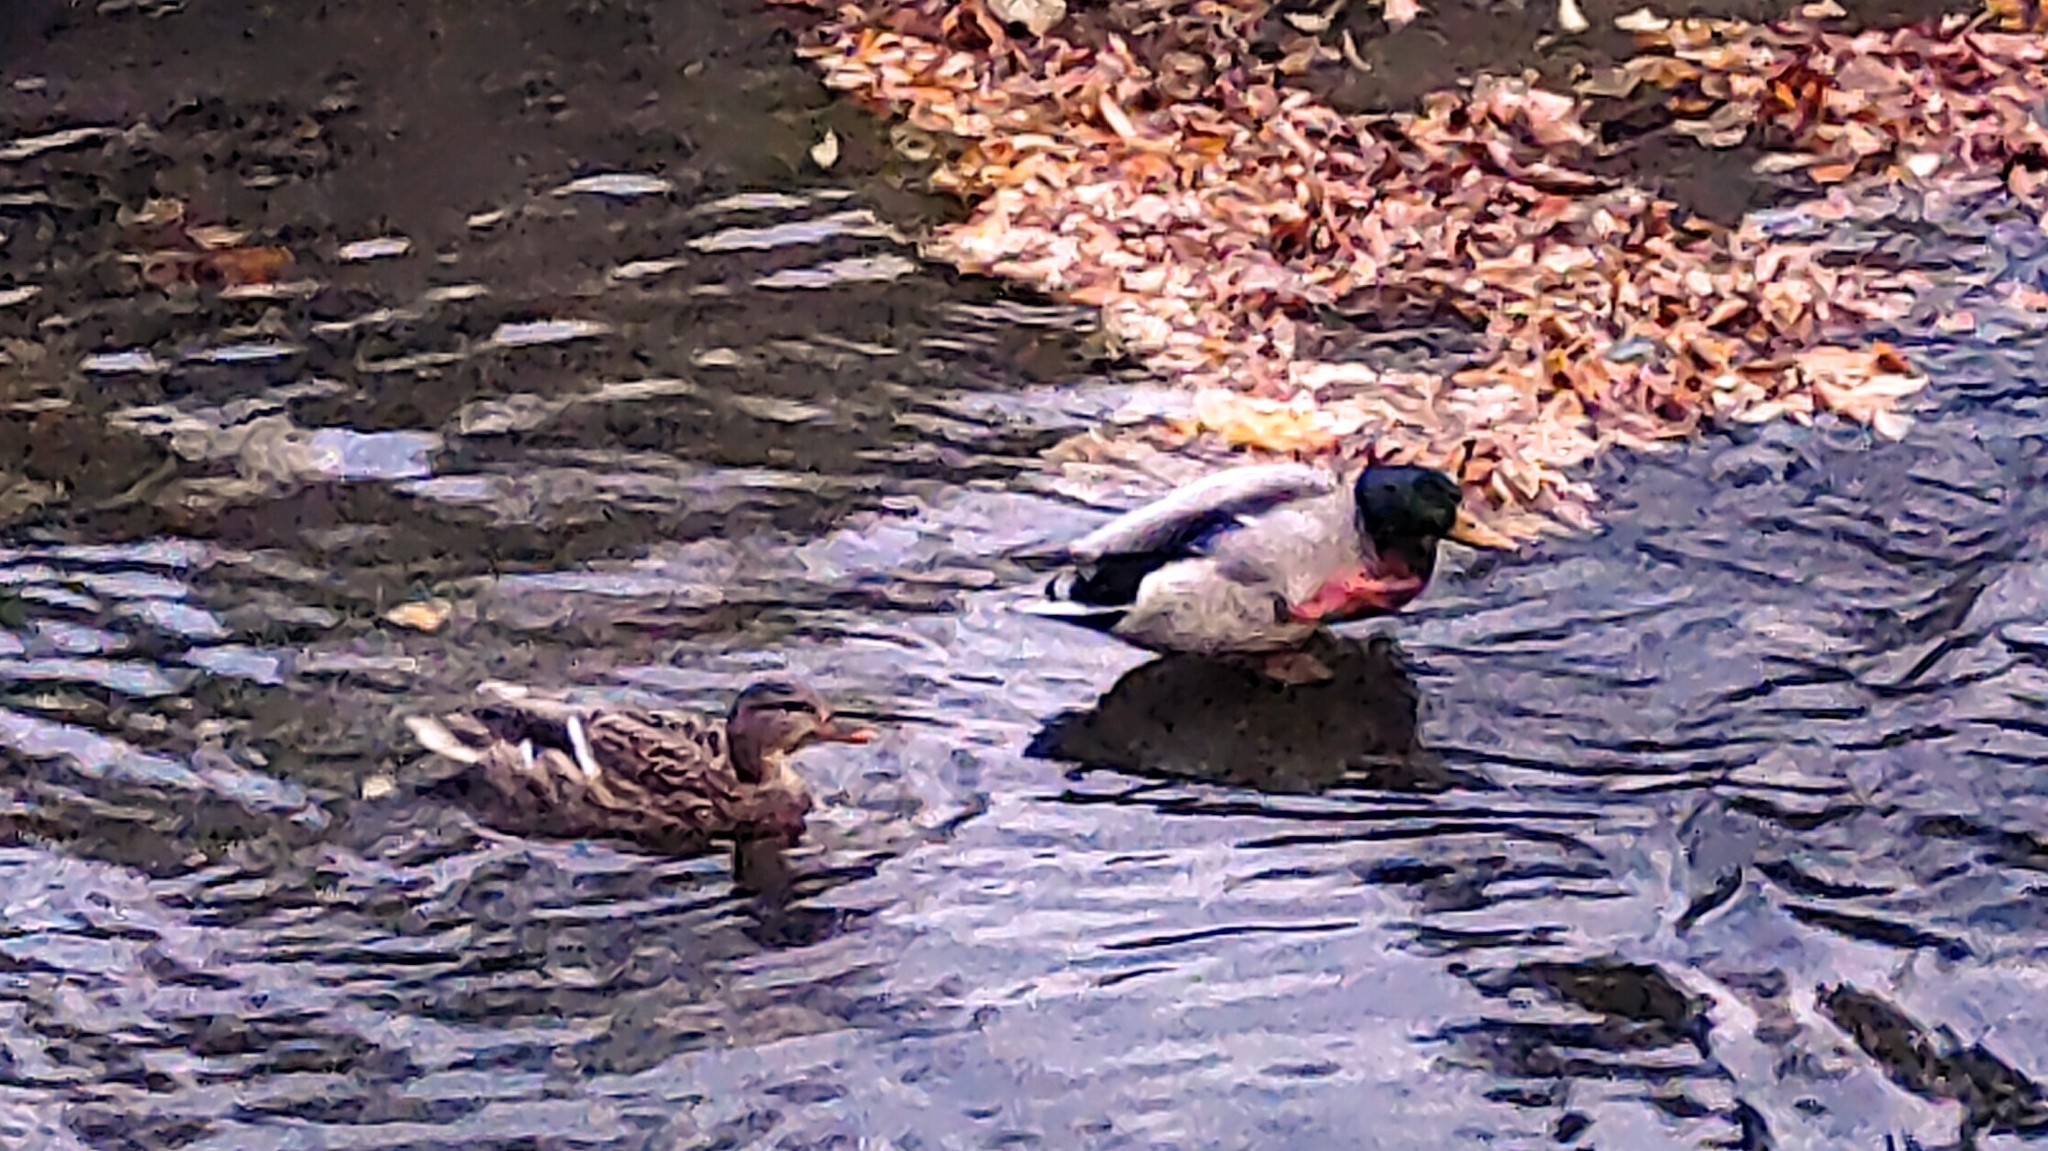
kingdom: Animalia
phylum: Chordata
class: Aves
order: Anseriformes
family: Anatidae
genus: Anas
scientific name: Anas platyrhynchos
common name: Mallard
